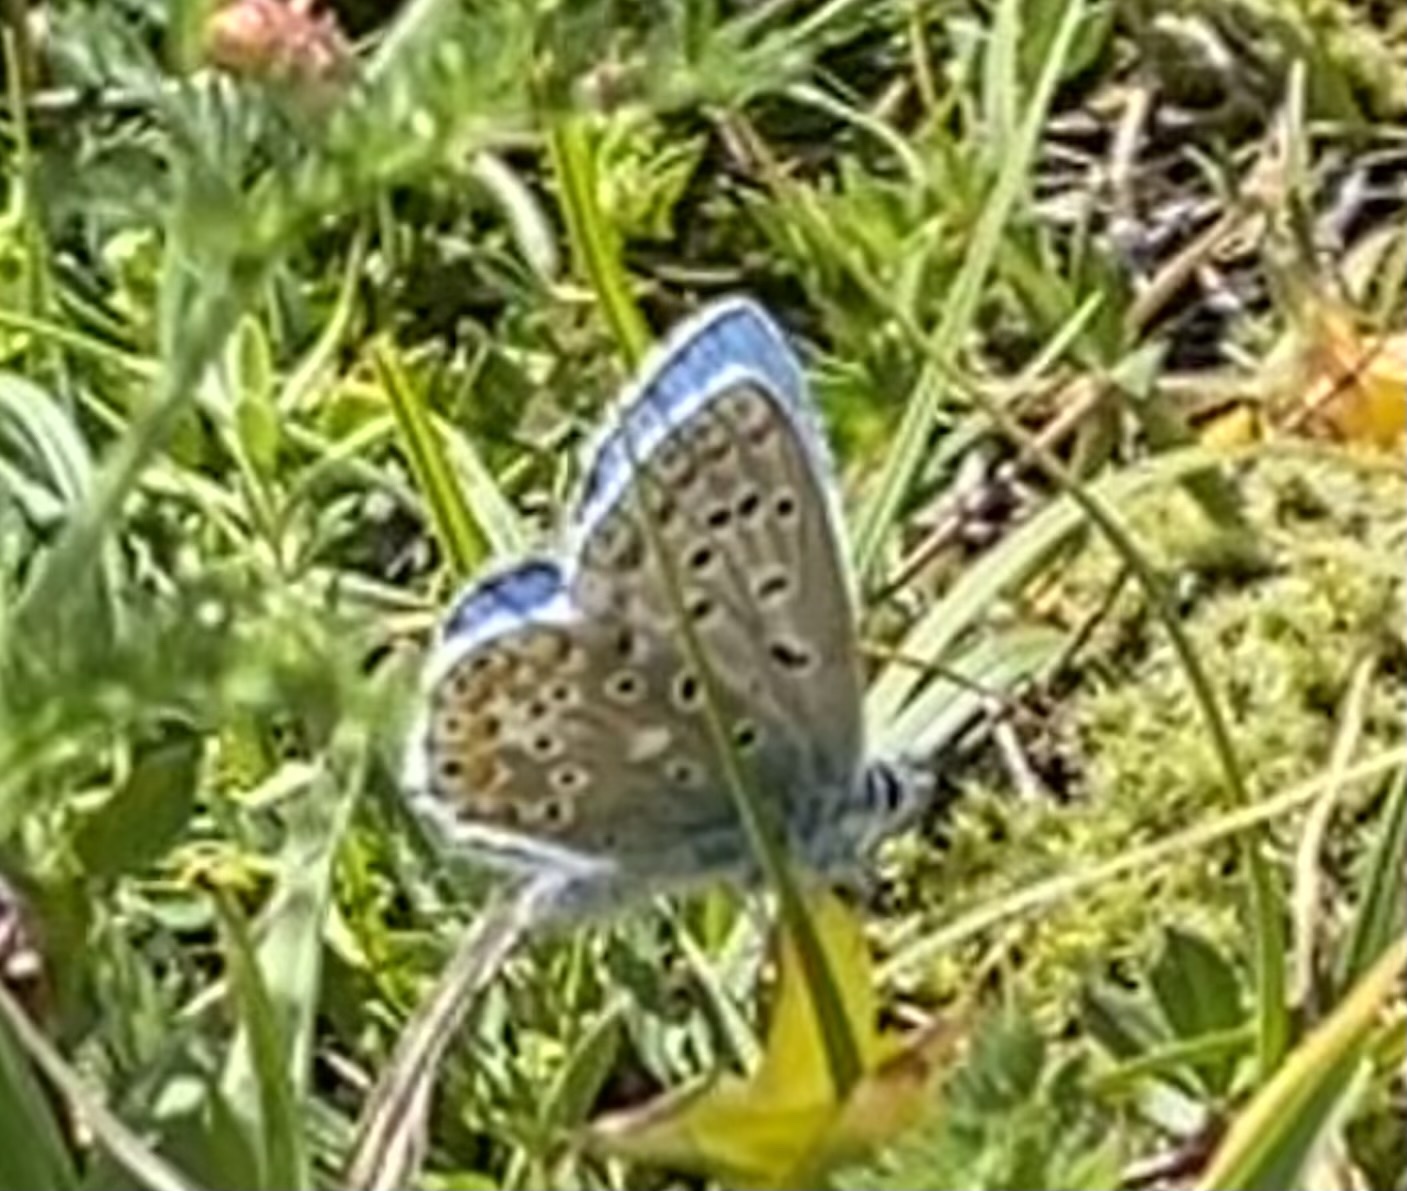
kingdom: Animalia
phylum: Arthropoda
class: Insecta
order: Lepidoptera
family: Lycaenidae
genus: Polyommatus
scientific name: Polyommatus icarus
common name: Common blue
